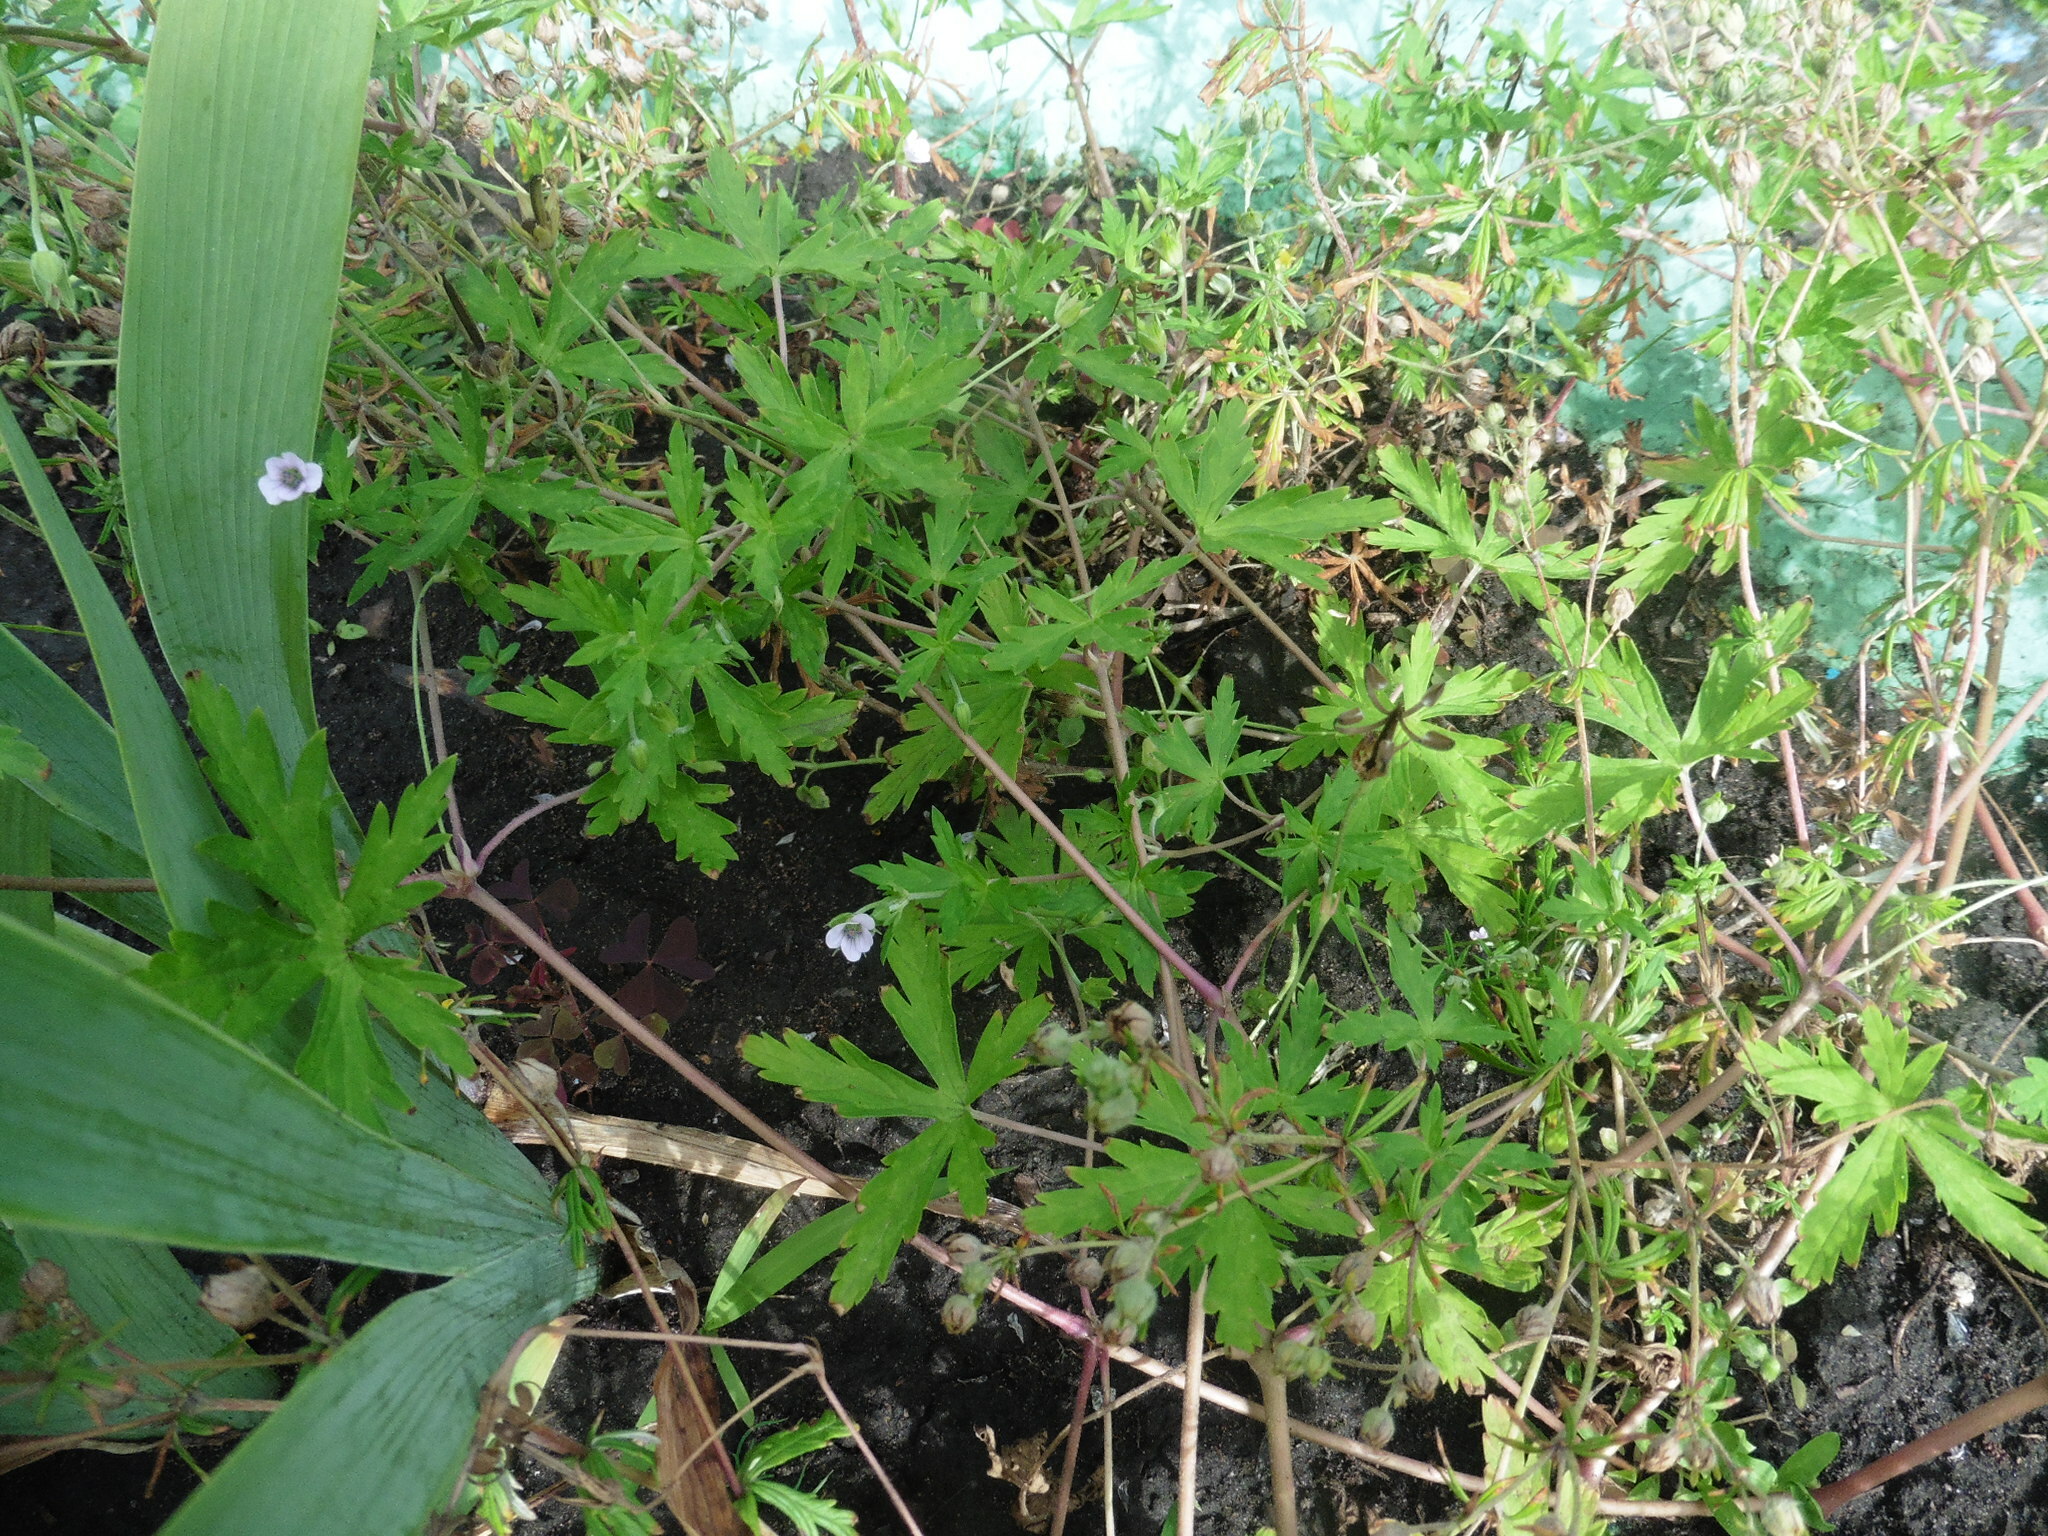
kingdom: Plantae
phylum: Tracheophyta
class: Magnoliopsida
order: Geraniales
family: Geraniaceae
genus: Geranium
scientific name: Geranium sibiricum
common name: Siberian crane's-bill
